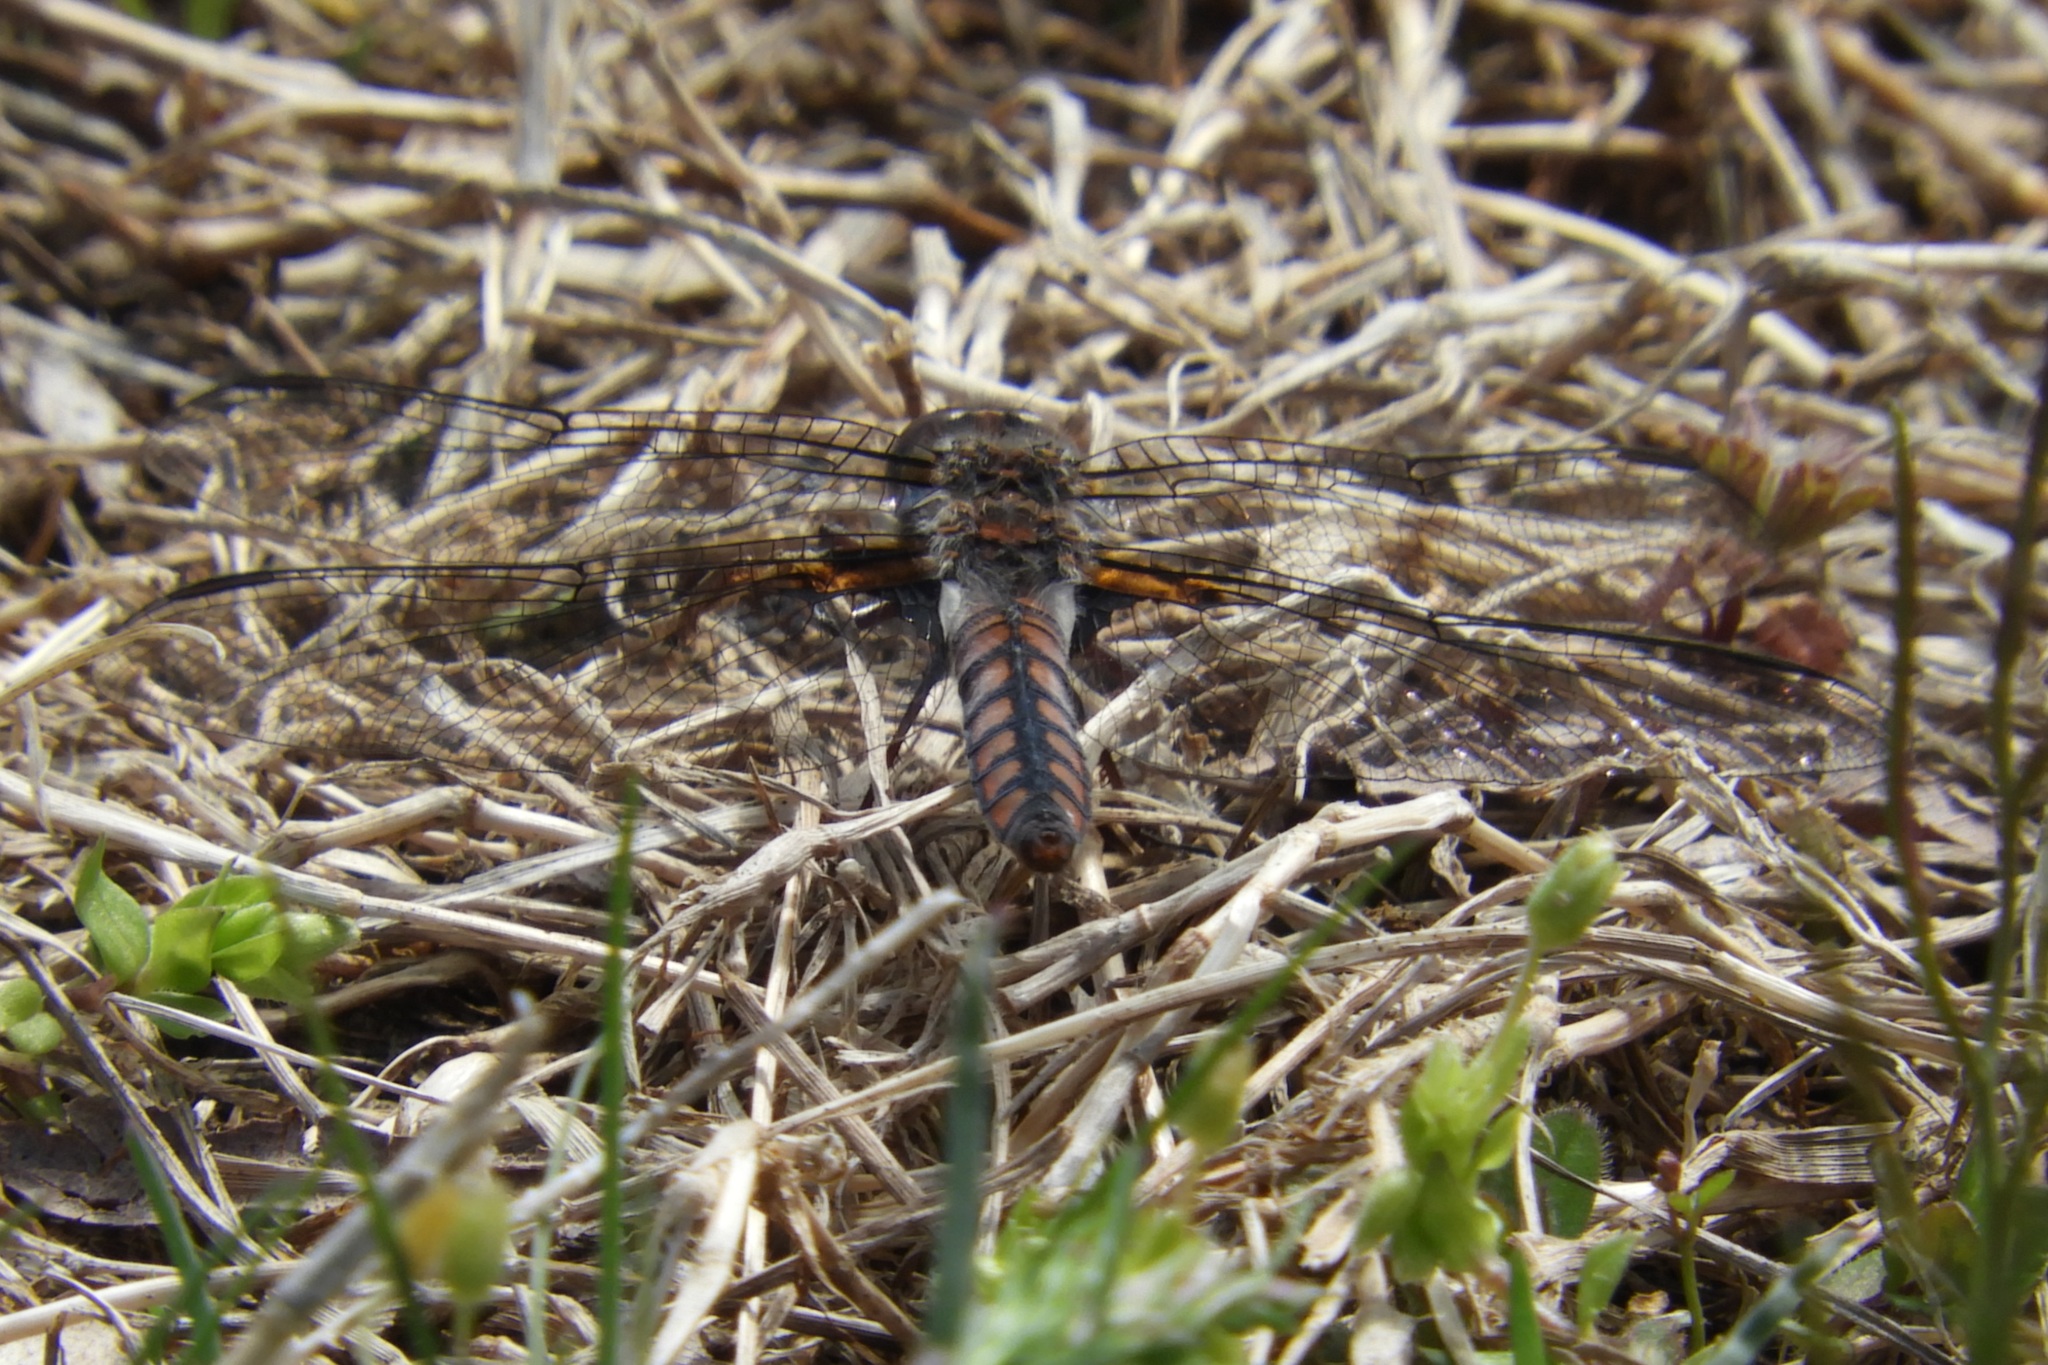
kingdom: Animalia
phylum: Arthropoda
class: Insecta
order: Odonata
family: Libellulidae
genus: Ladona
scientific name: Ladona deplanata
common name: Blue corporal
